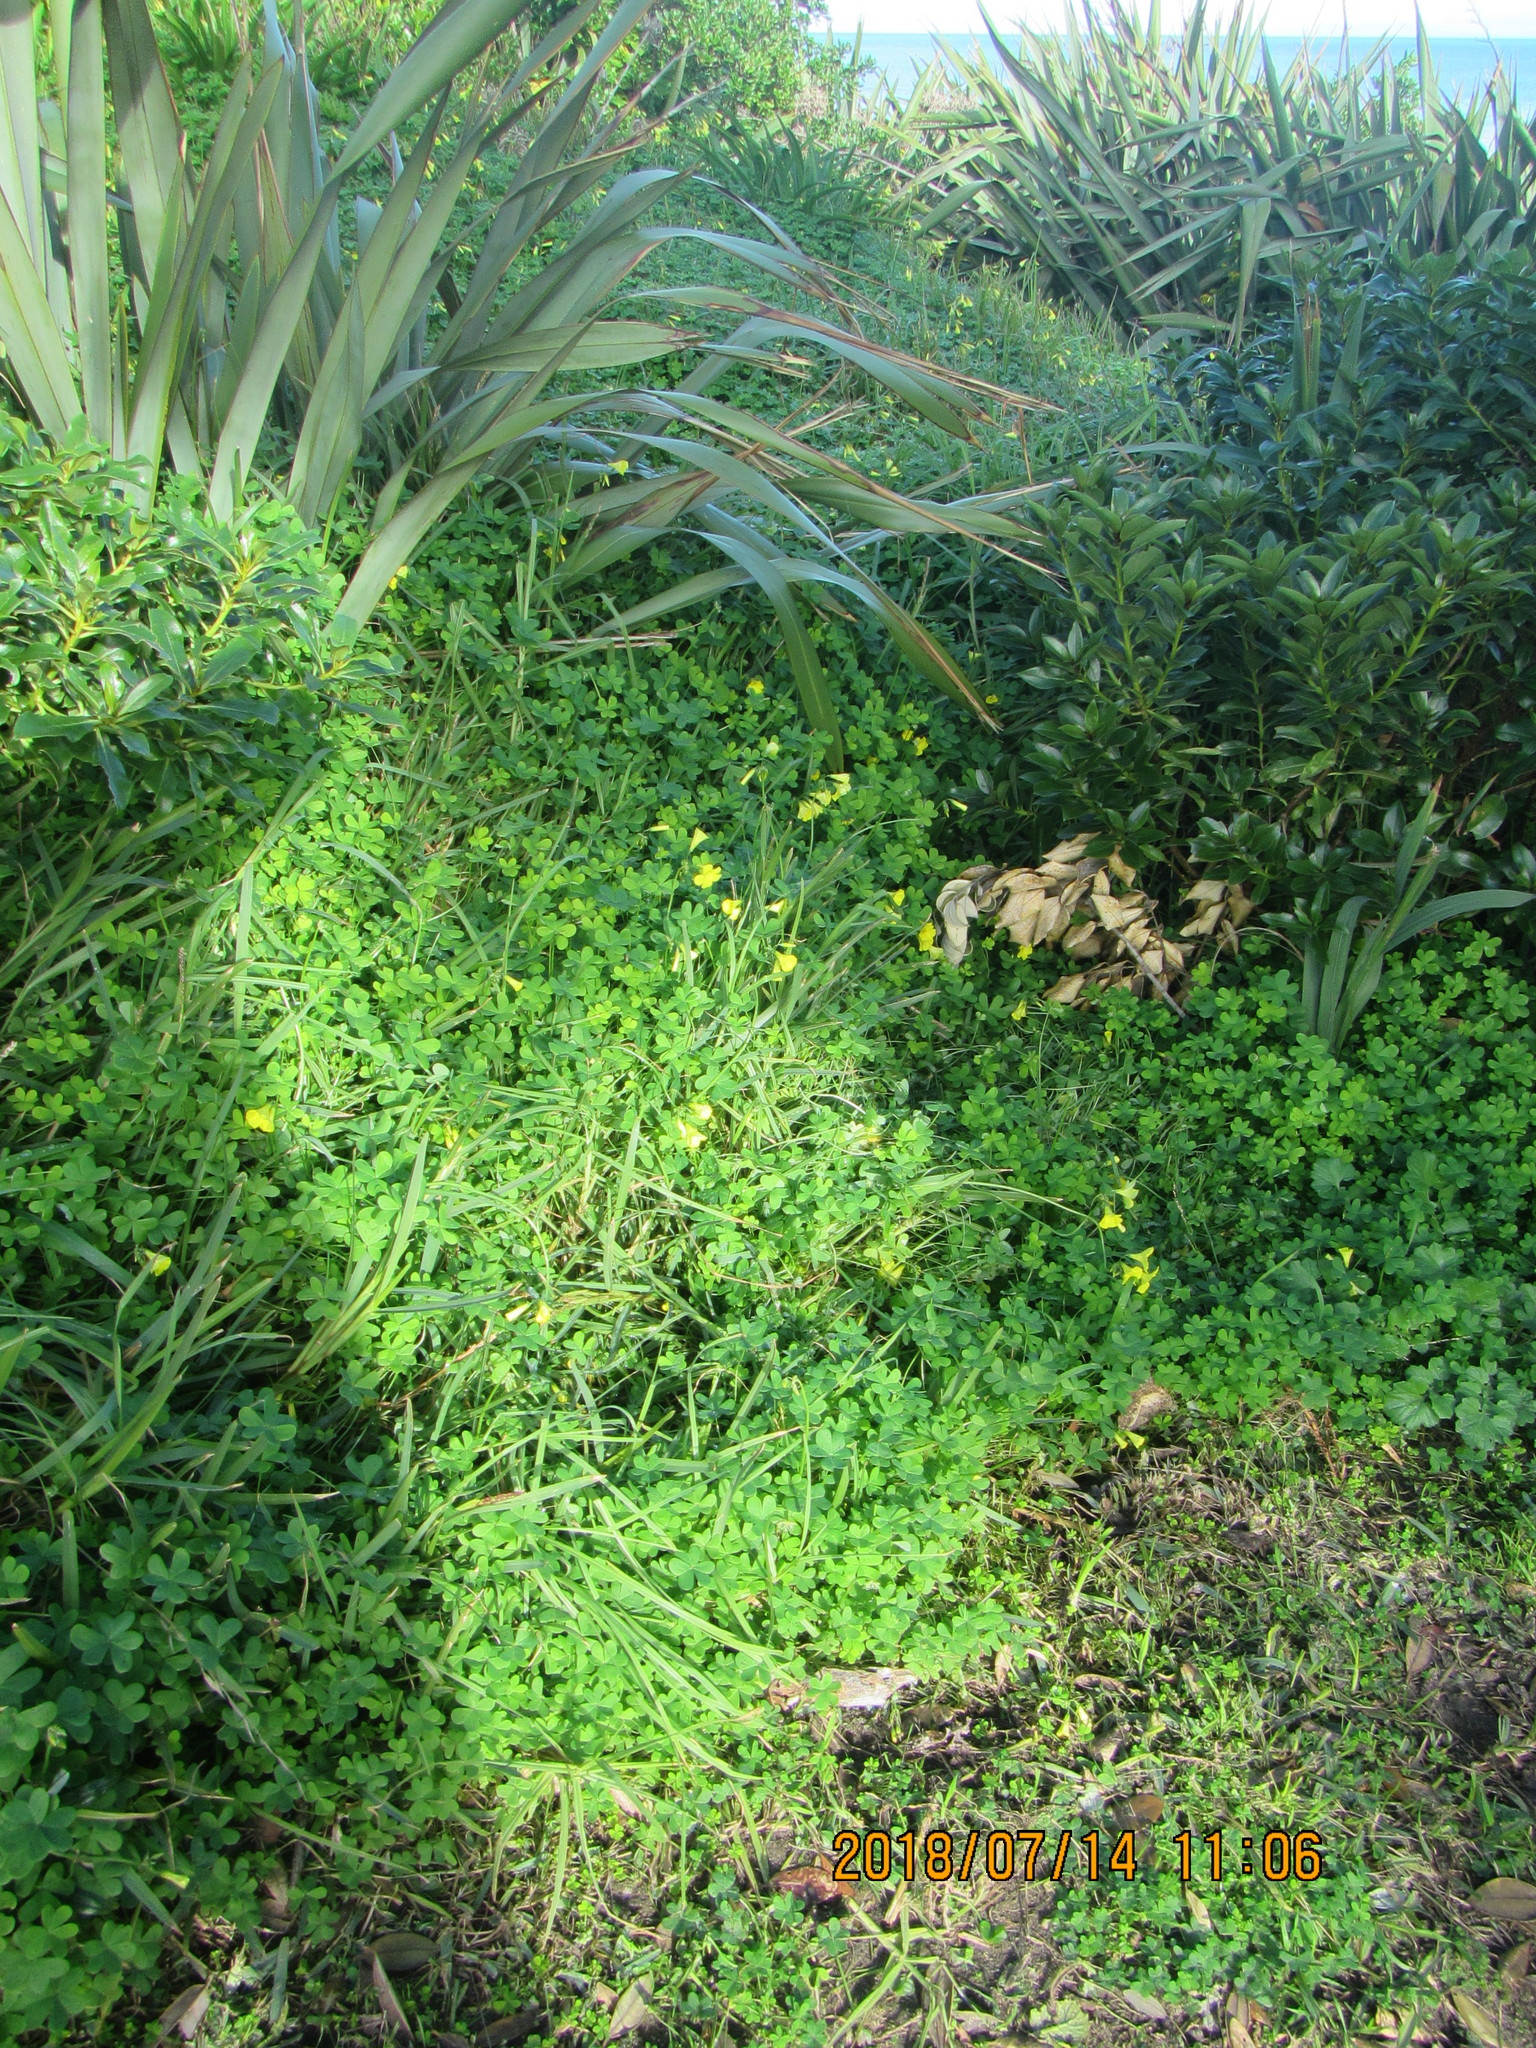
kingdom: Plantae
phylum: Tracheophyta
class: Magnoliopsida
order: Oxalidales
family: Oxalidaceae
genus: Oxalis
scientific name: Oxalis pes-caprae
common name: Bermuda-buttercup
